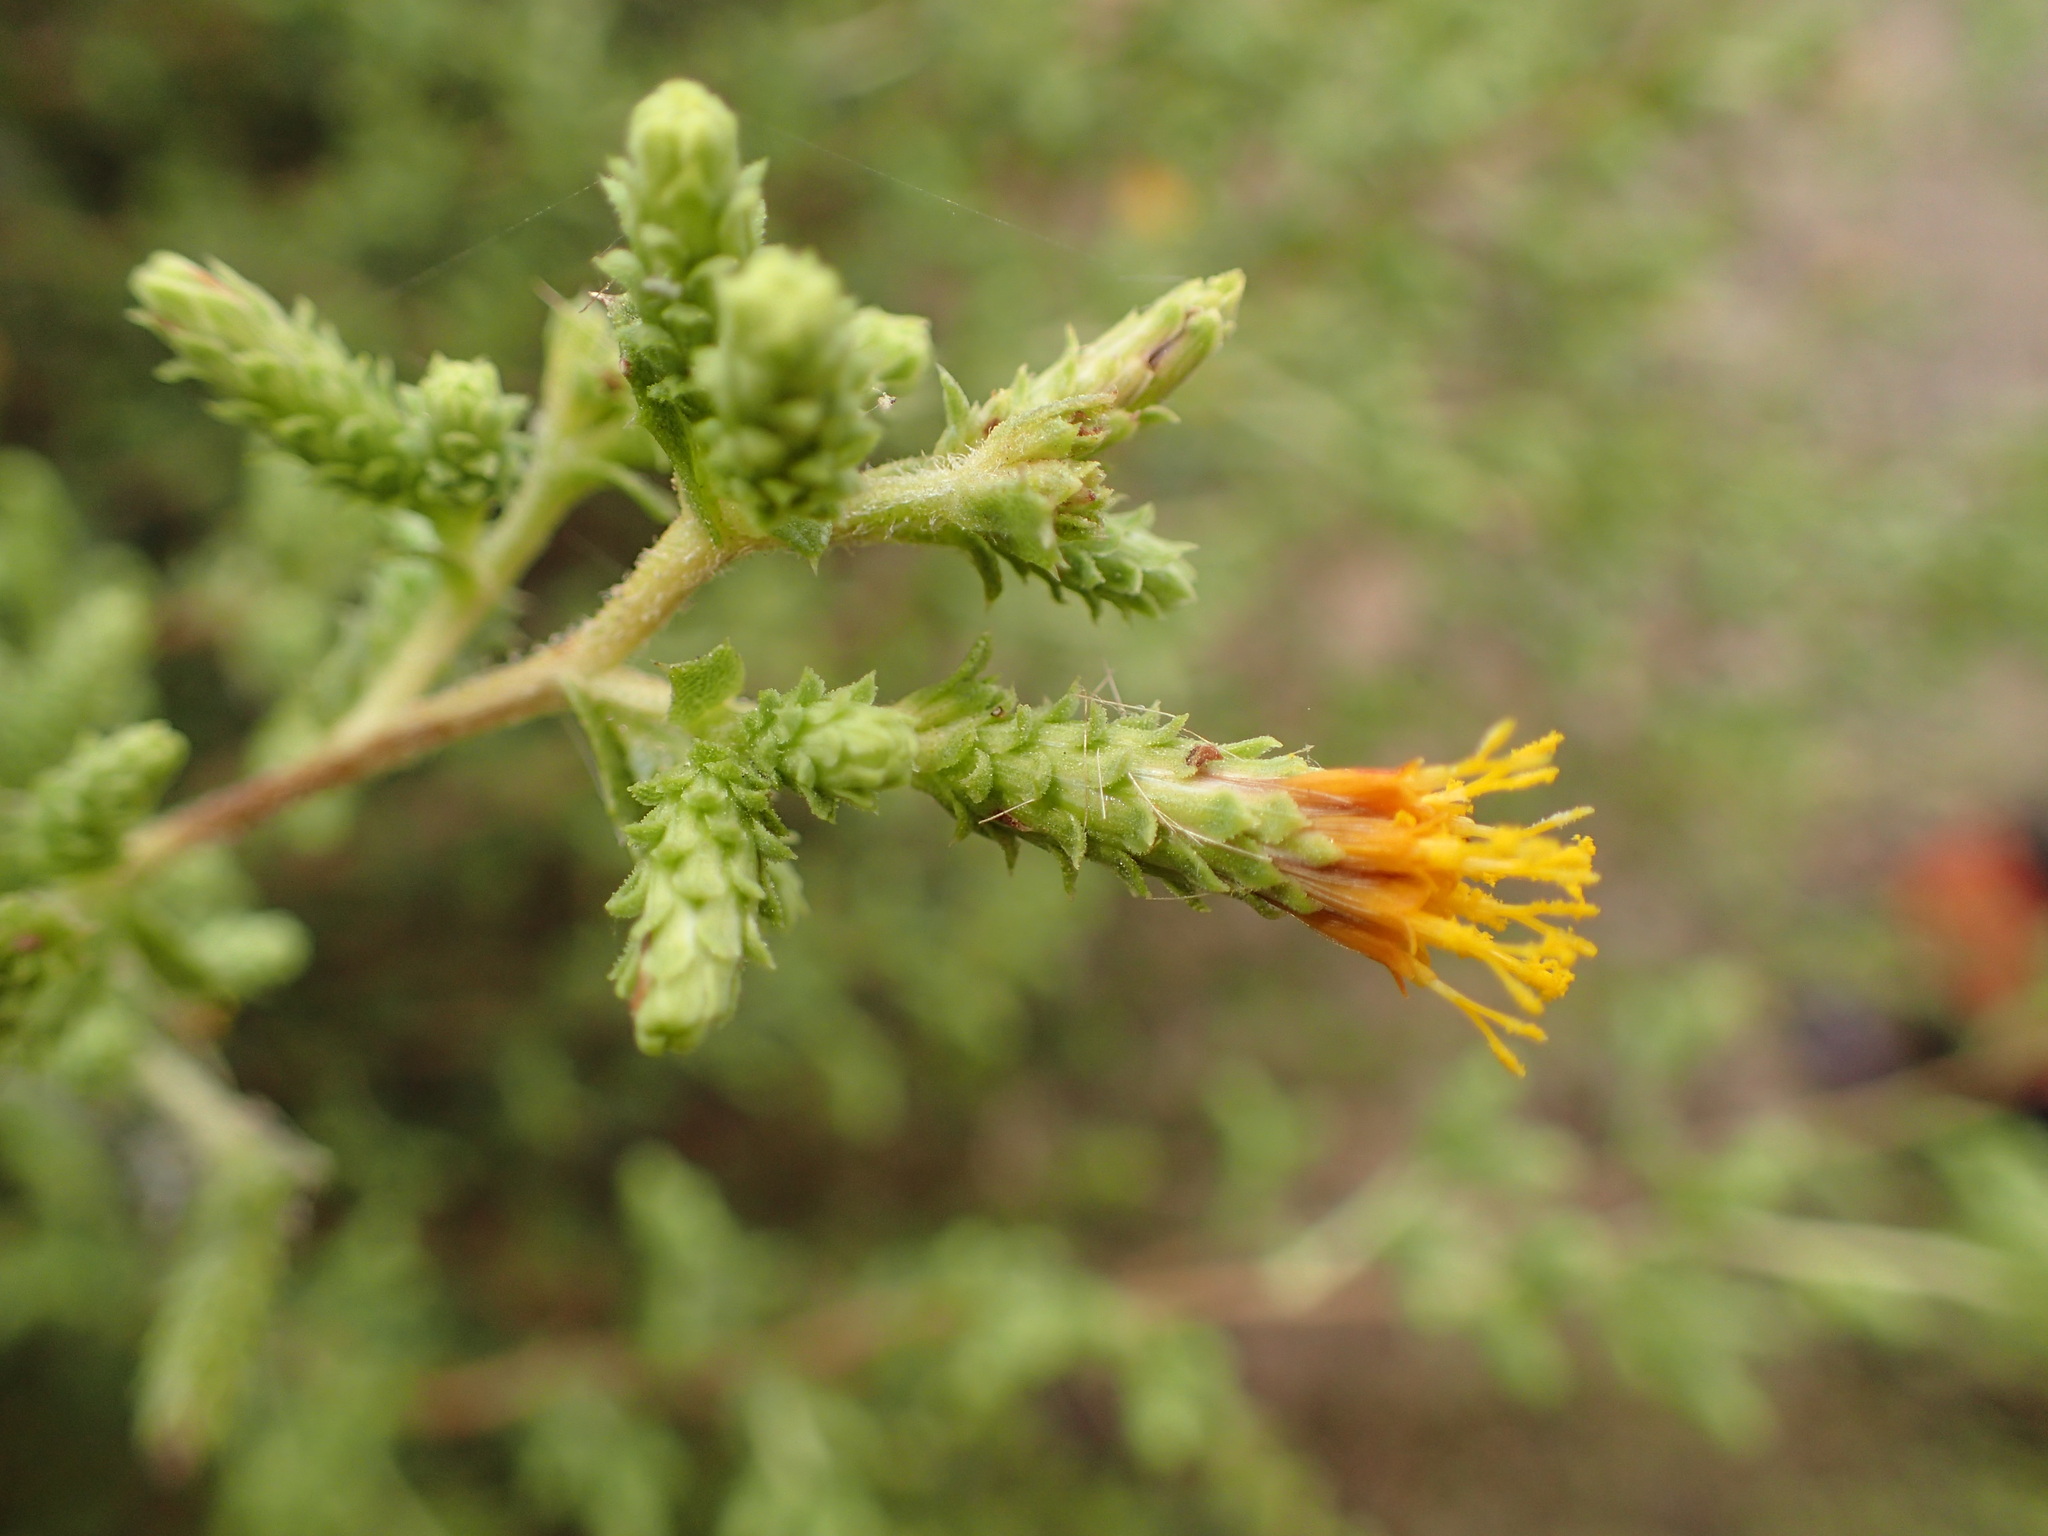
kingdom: Plantae
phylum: Tracheophyta
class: Magnoliopsida
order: Asterales
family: Asteraceae
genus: Hazardia
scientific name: Hazardia squarrosa
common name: Saw-tooth goldenbush
